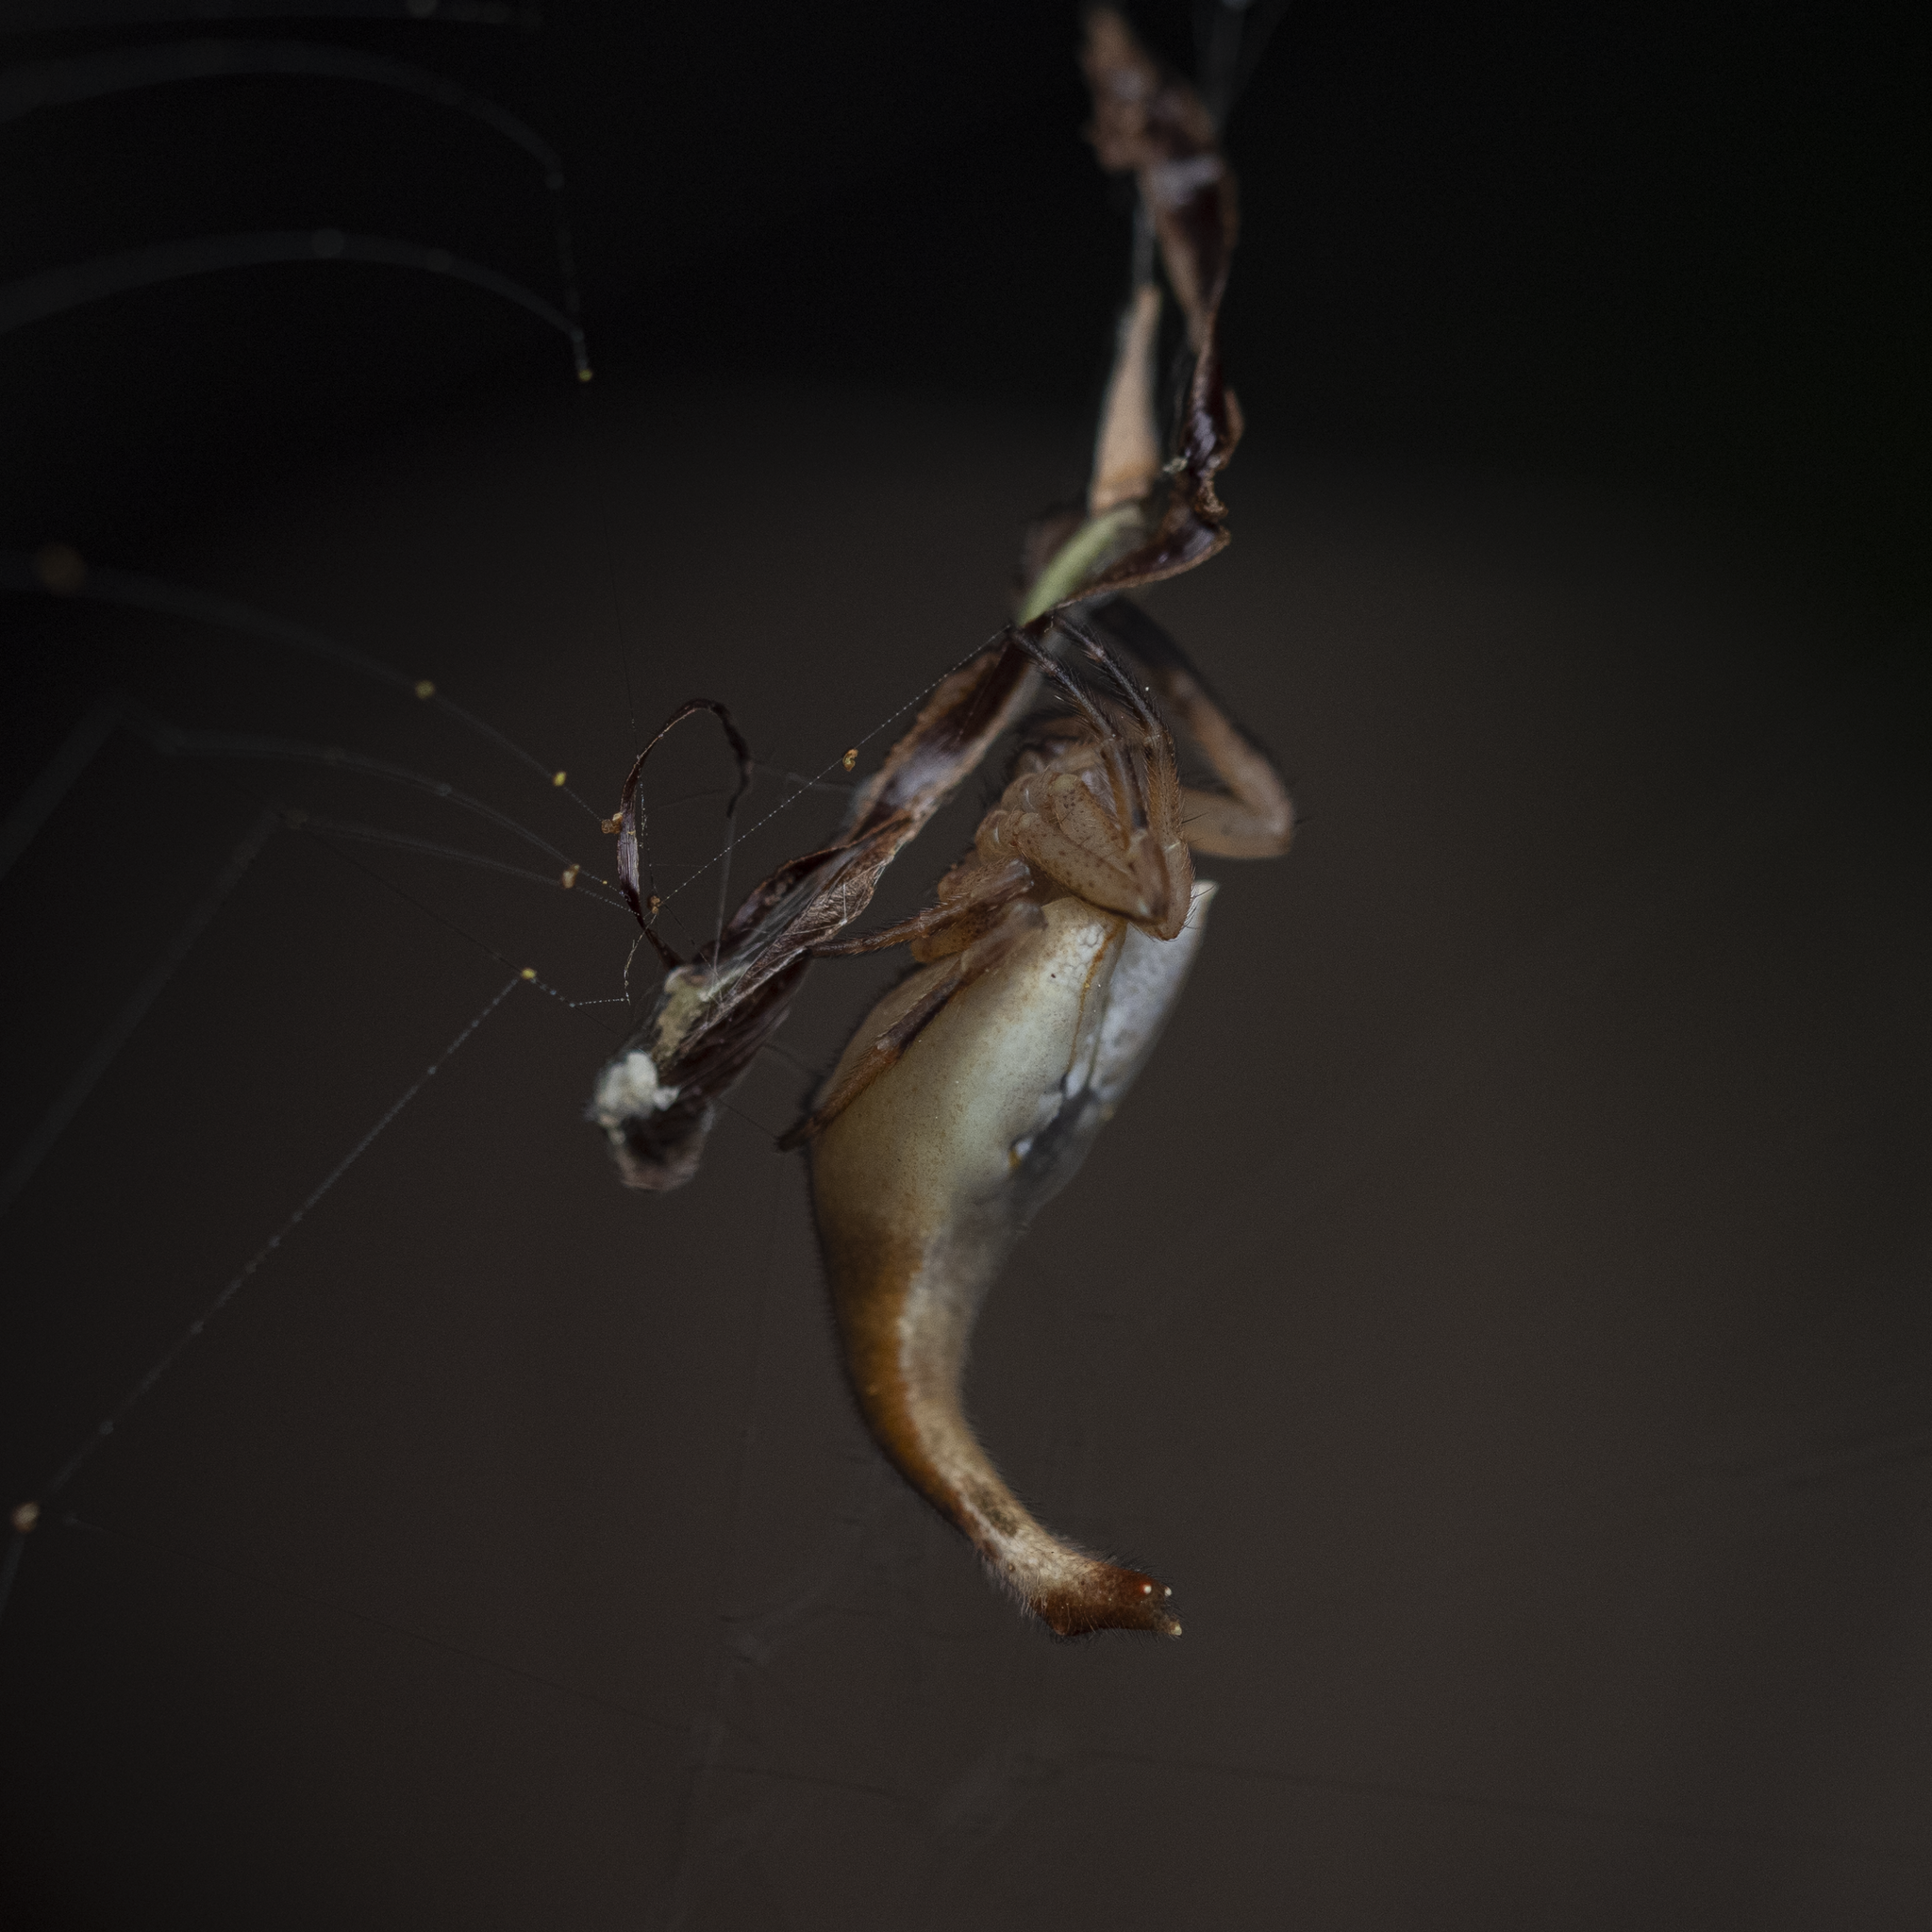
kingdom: Animalia
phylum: Arthropoda
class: Arachnida
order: Araneae
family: Araneidae
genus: Arachnura
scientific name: Arachnura feredayi
